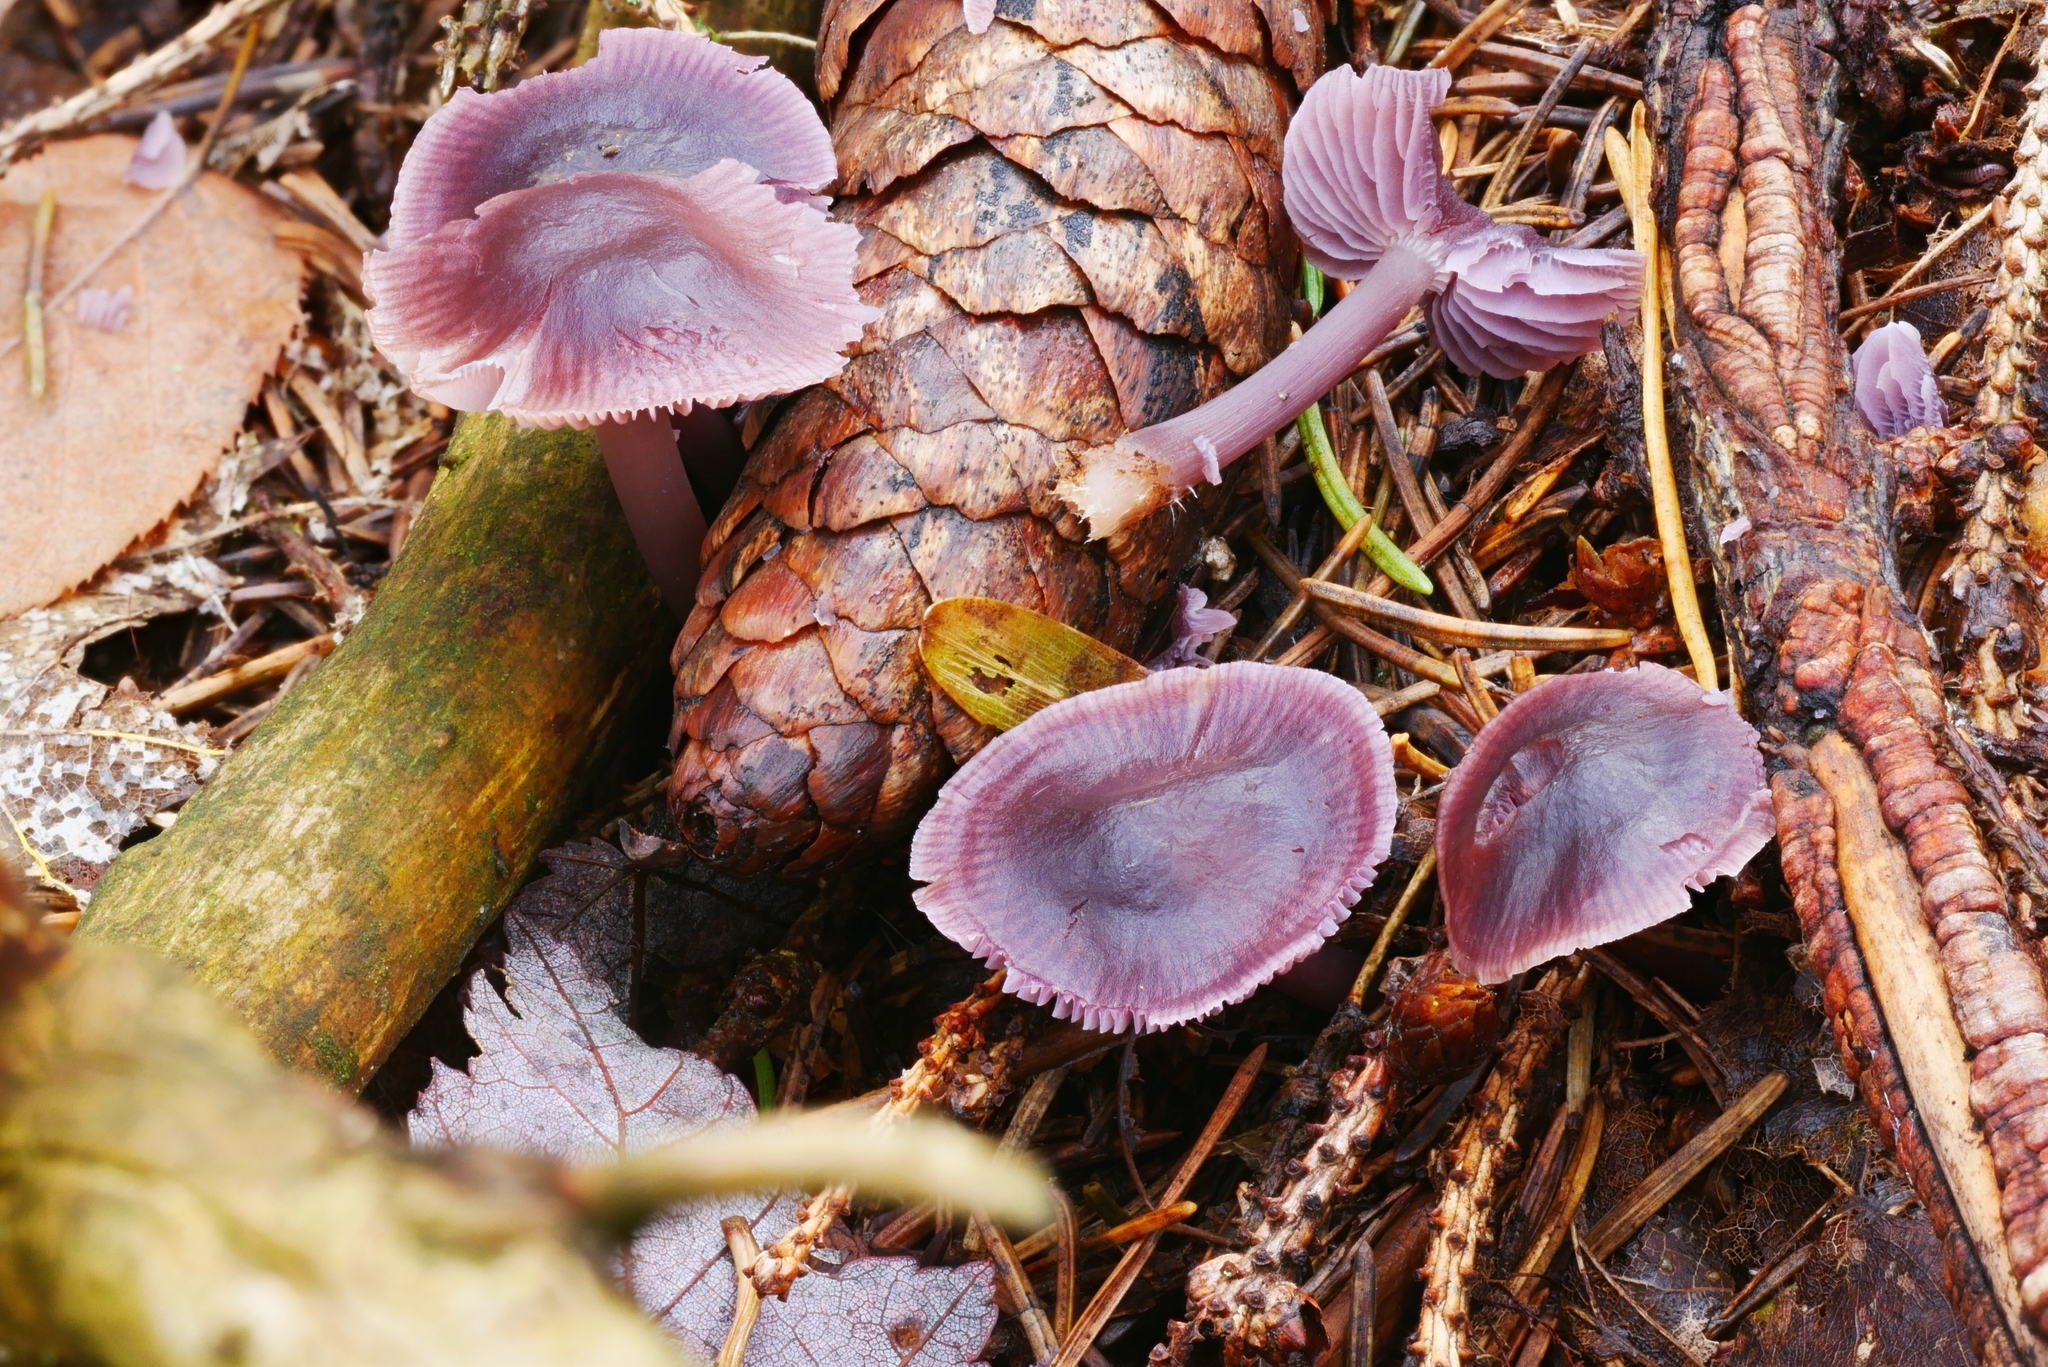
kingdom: Fungi
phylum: Basidiomycota
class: Agaricomycetes
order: Agaricales
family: Mycenaceae
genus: Mycena
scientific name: Mycena pura
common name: Lilac bonnet
